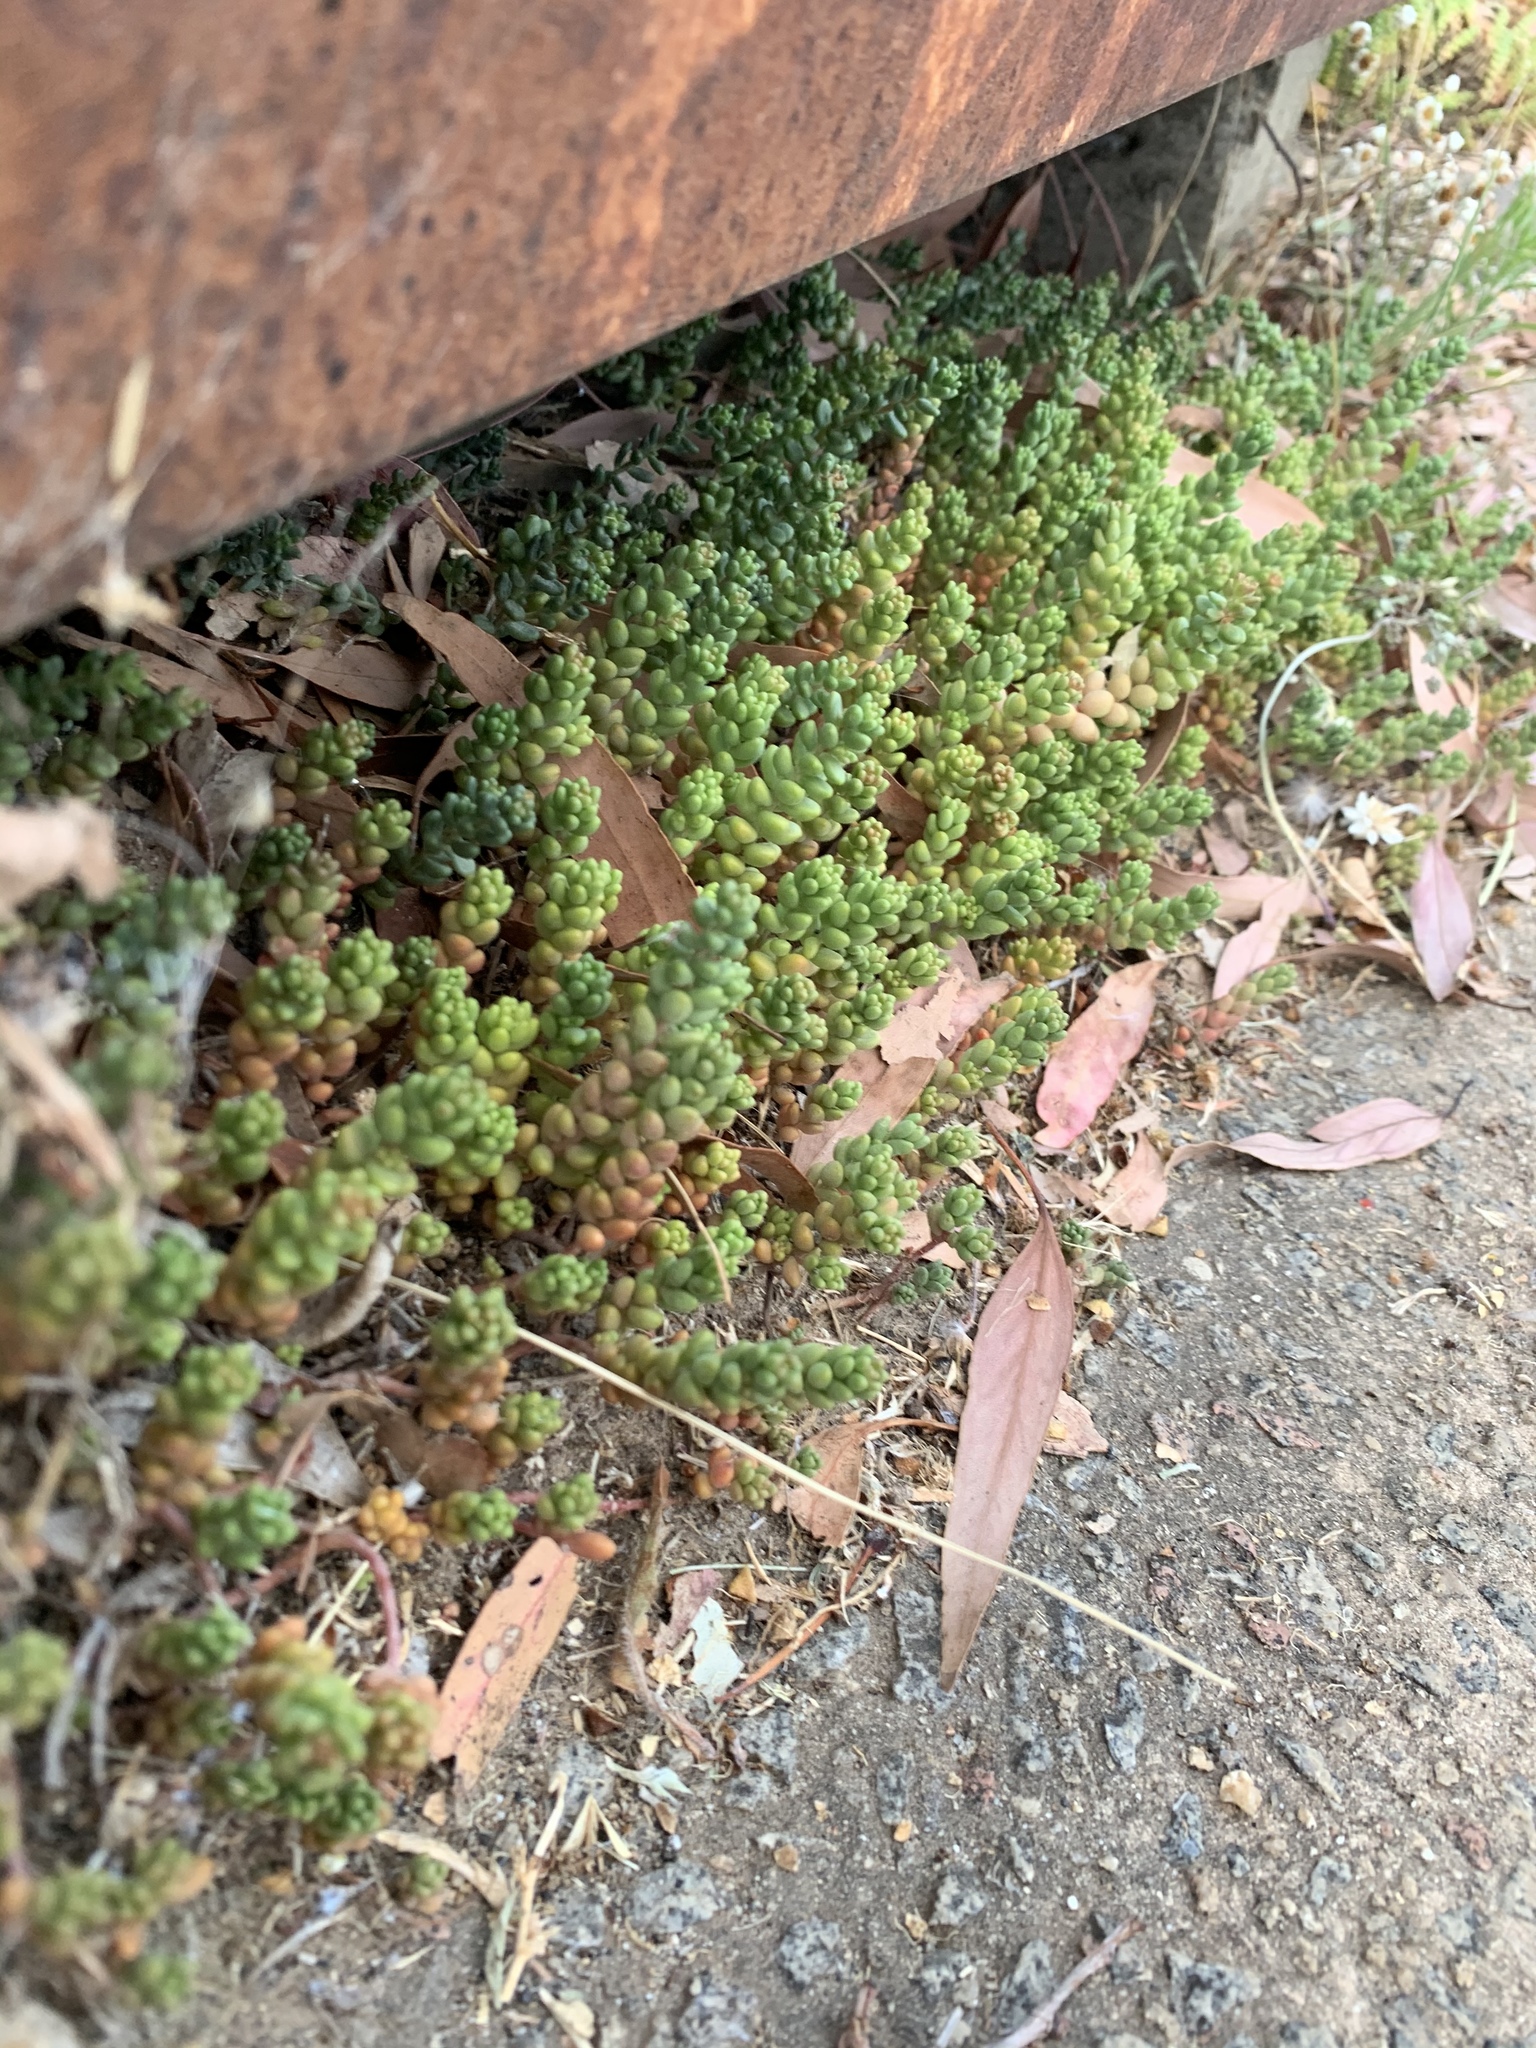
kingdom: Plantae
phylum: Tracheophyta
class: Magnoliopsida
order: Saxifragales
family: Crassulaceae
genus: Sedum
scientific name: Sedum album
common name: White stonecrop
